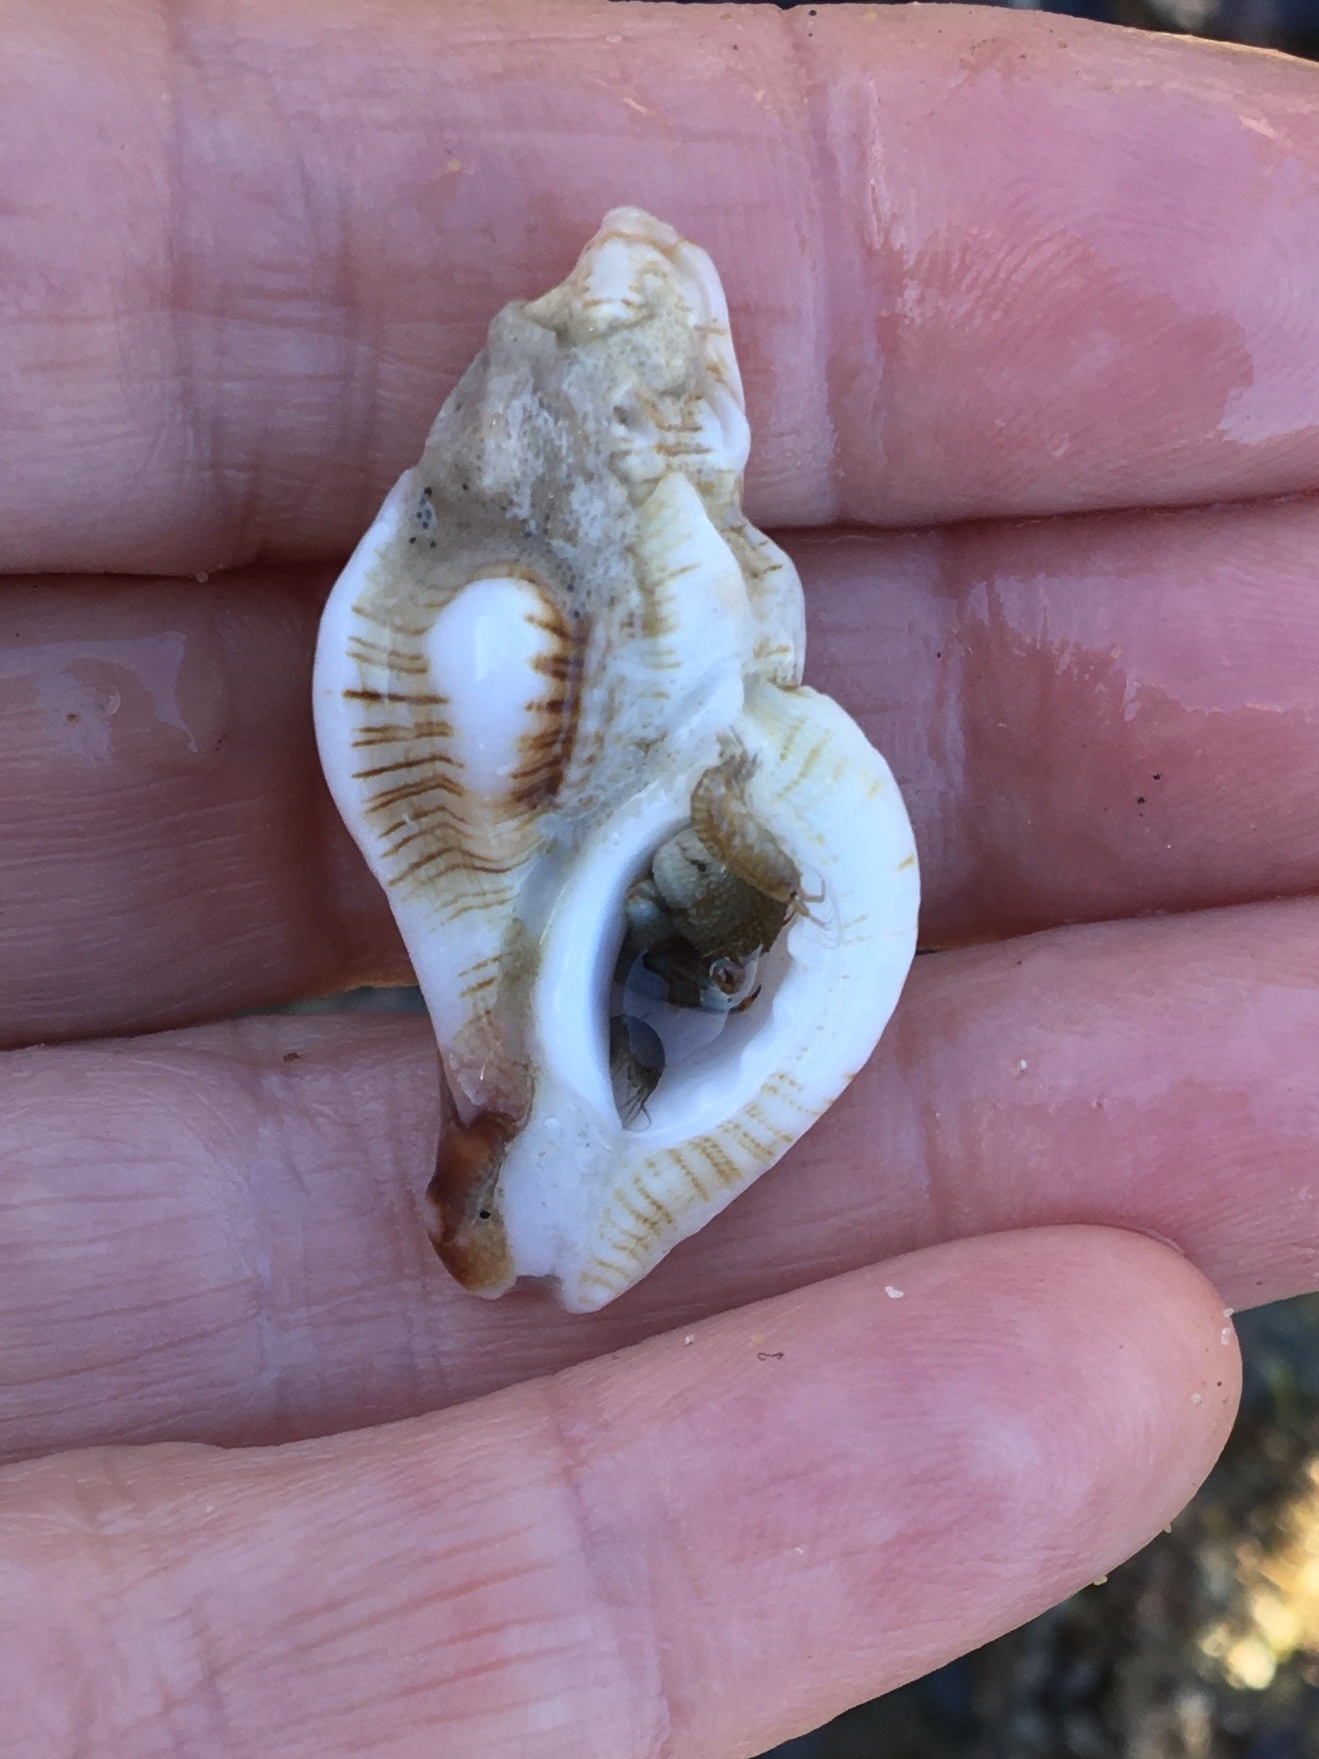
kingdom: Animalia
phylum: Mollusca
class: Gastropoda
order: Neogastropoda
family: Muricidae
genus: Pteropurpura
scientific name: Pteropurpura festiva
